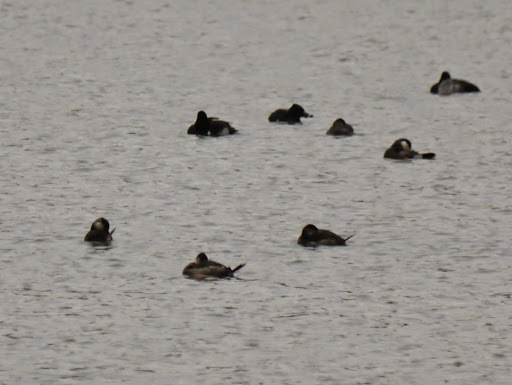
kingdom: Animalia
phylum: Chordata
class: Aves
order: Anseriformes
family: Anatidae
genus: Oxyura
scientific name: Oxyura jamaicensis
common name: Ruddy duck
